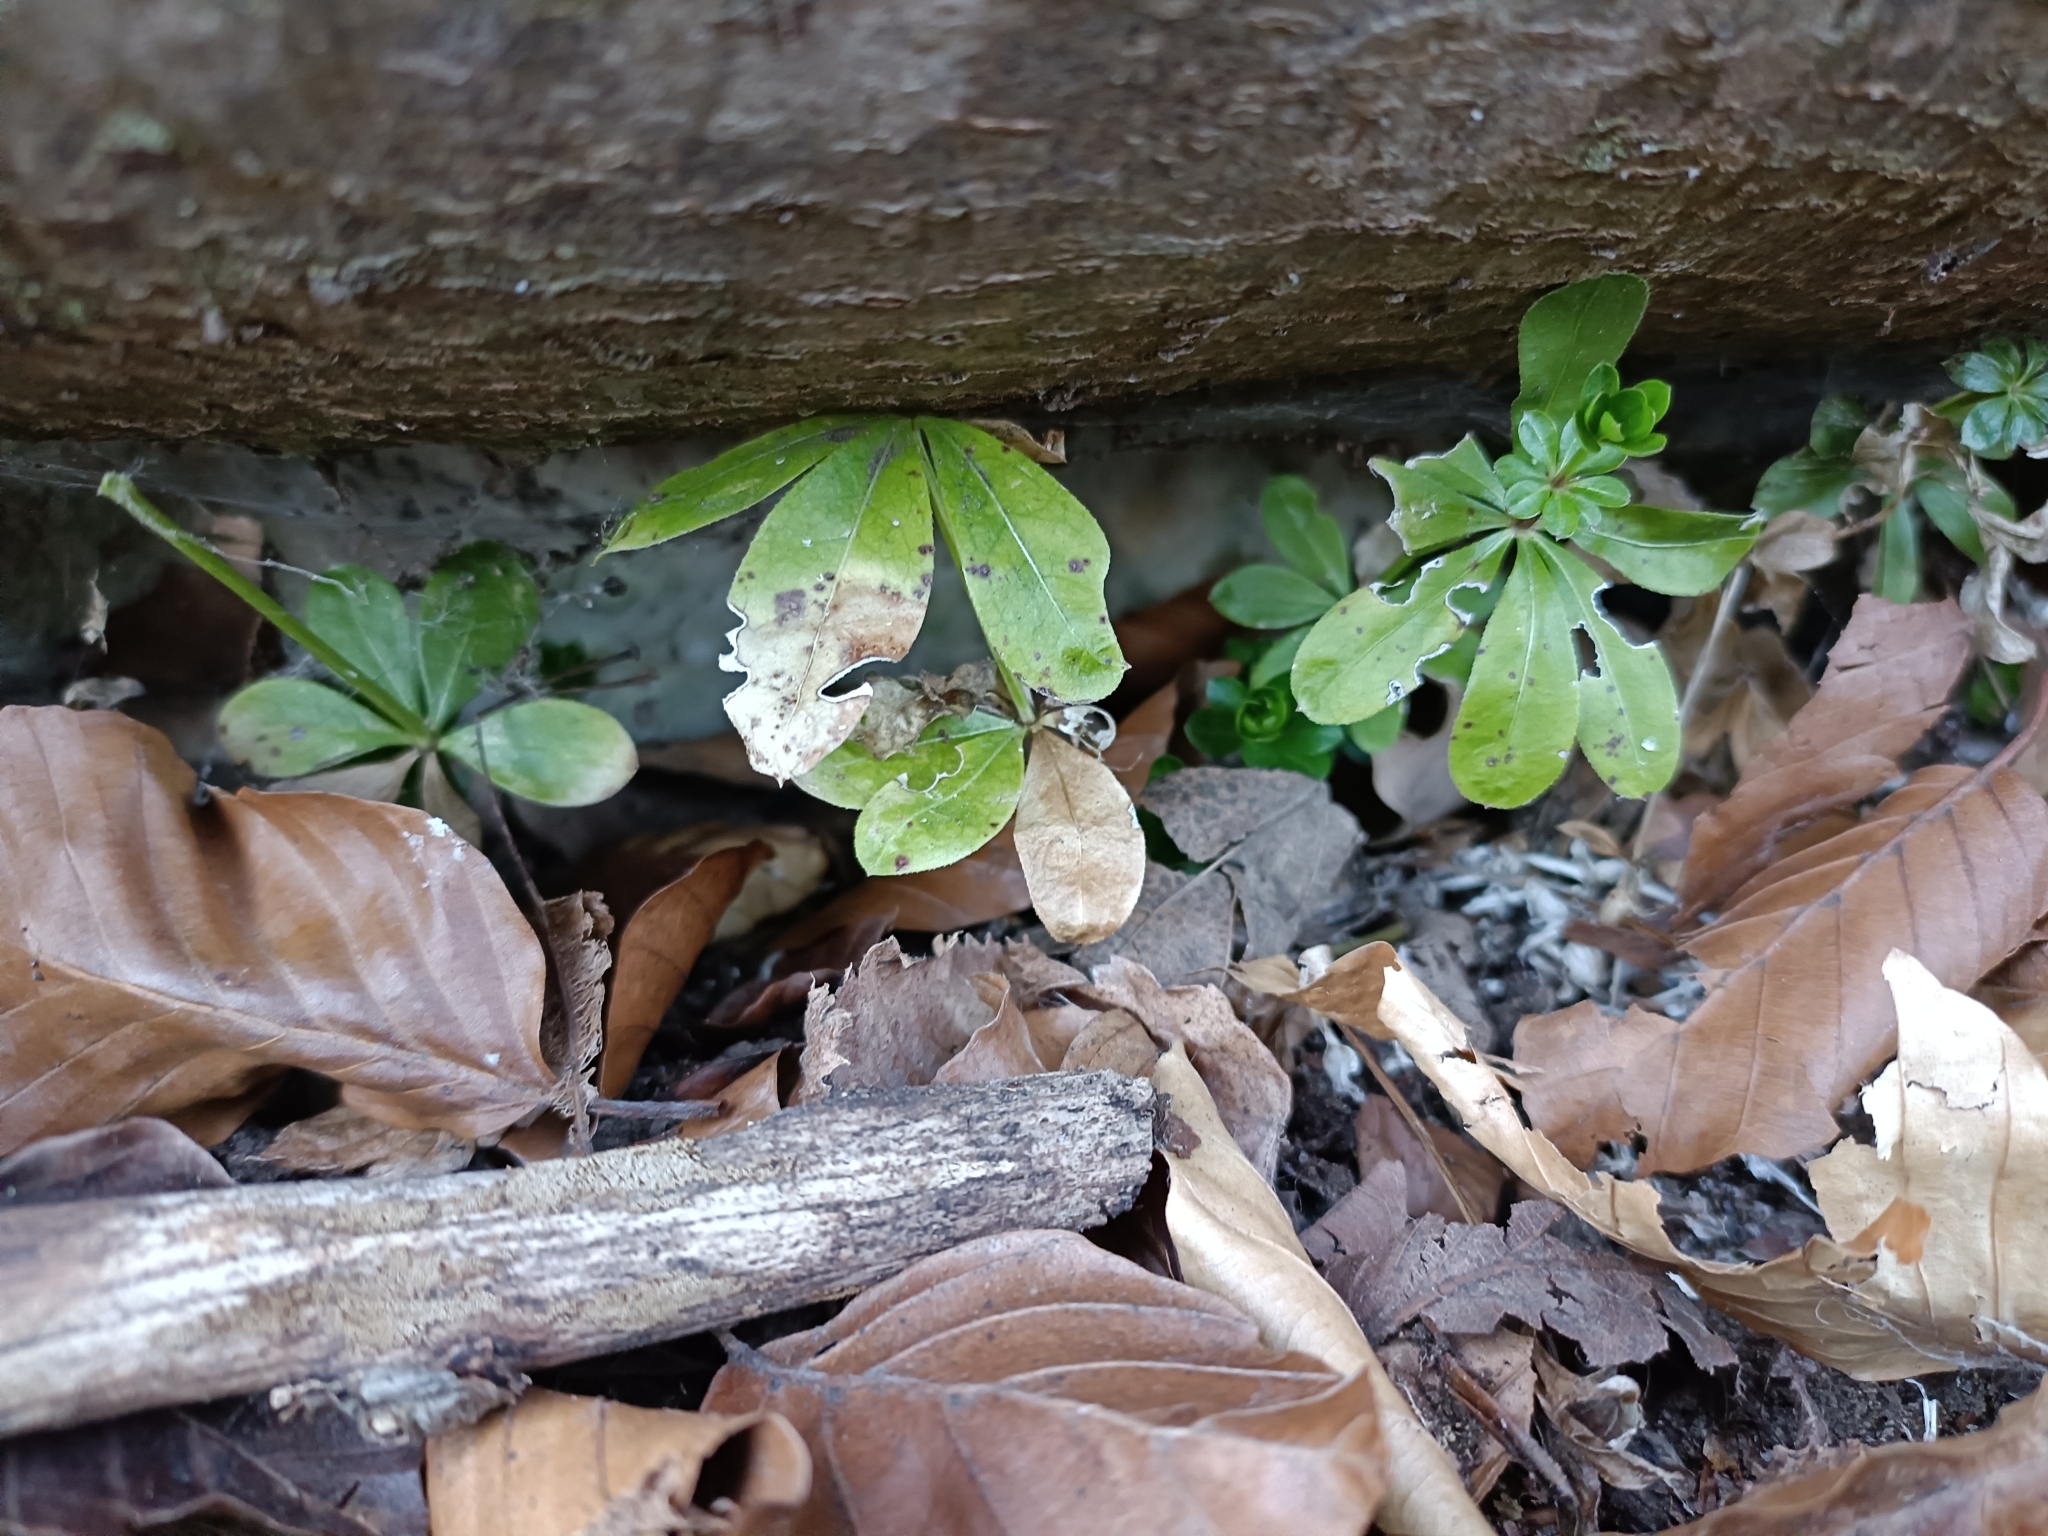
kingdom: Plantae
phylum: Tracheophyta
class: Magnoliopsida
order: Gentianales
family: Rubiaceae
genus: Galium
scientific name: Galium odoratum
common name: Sweet woodruff
